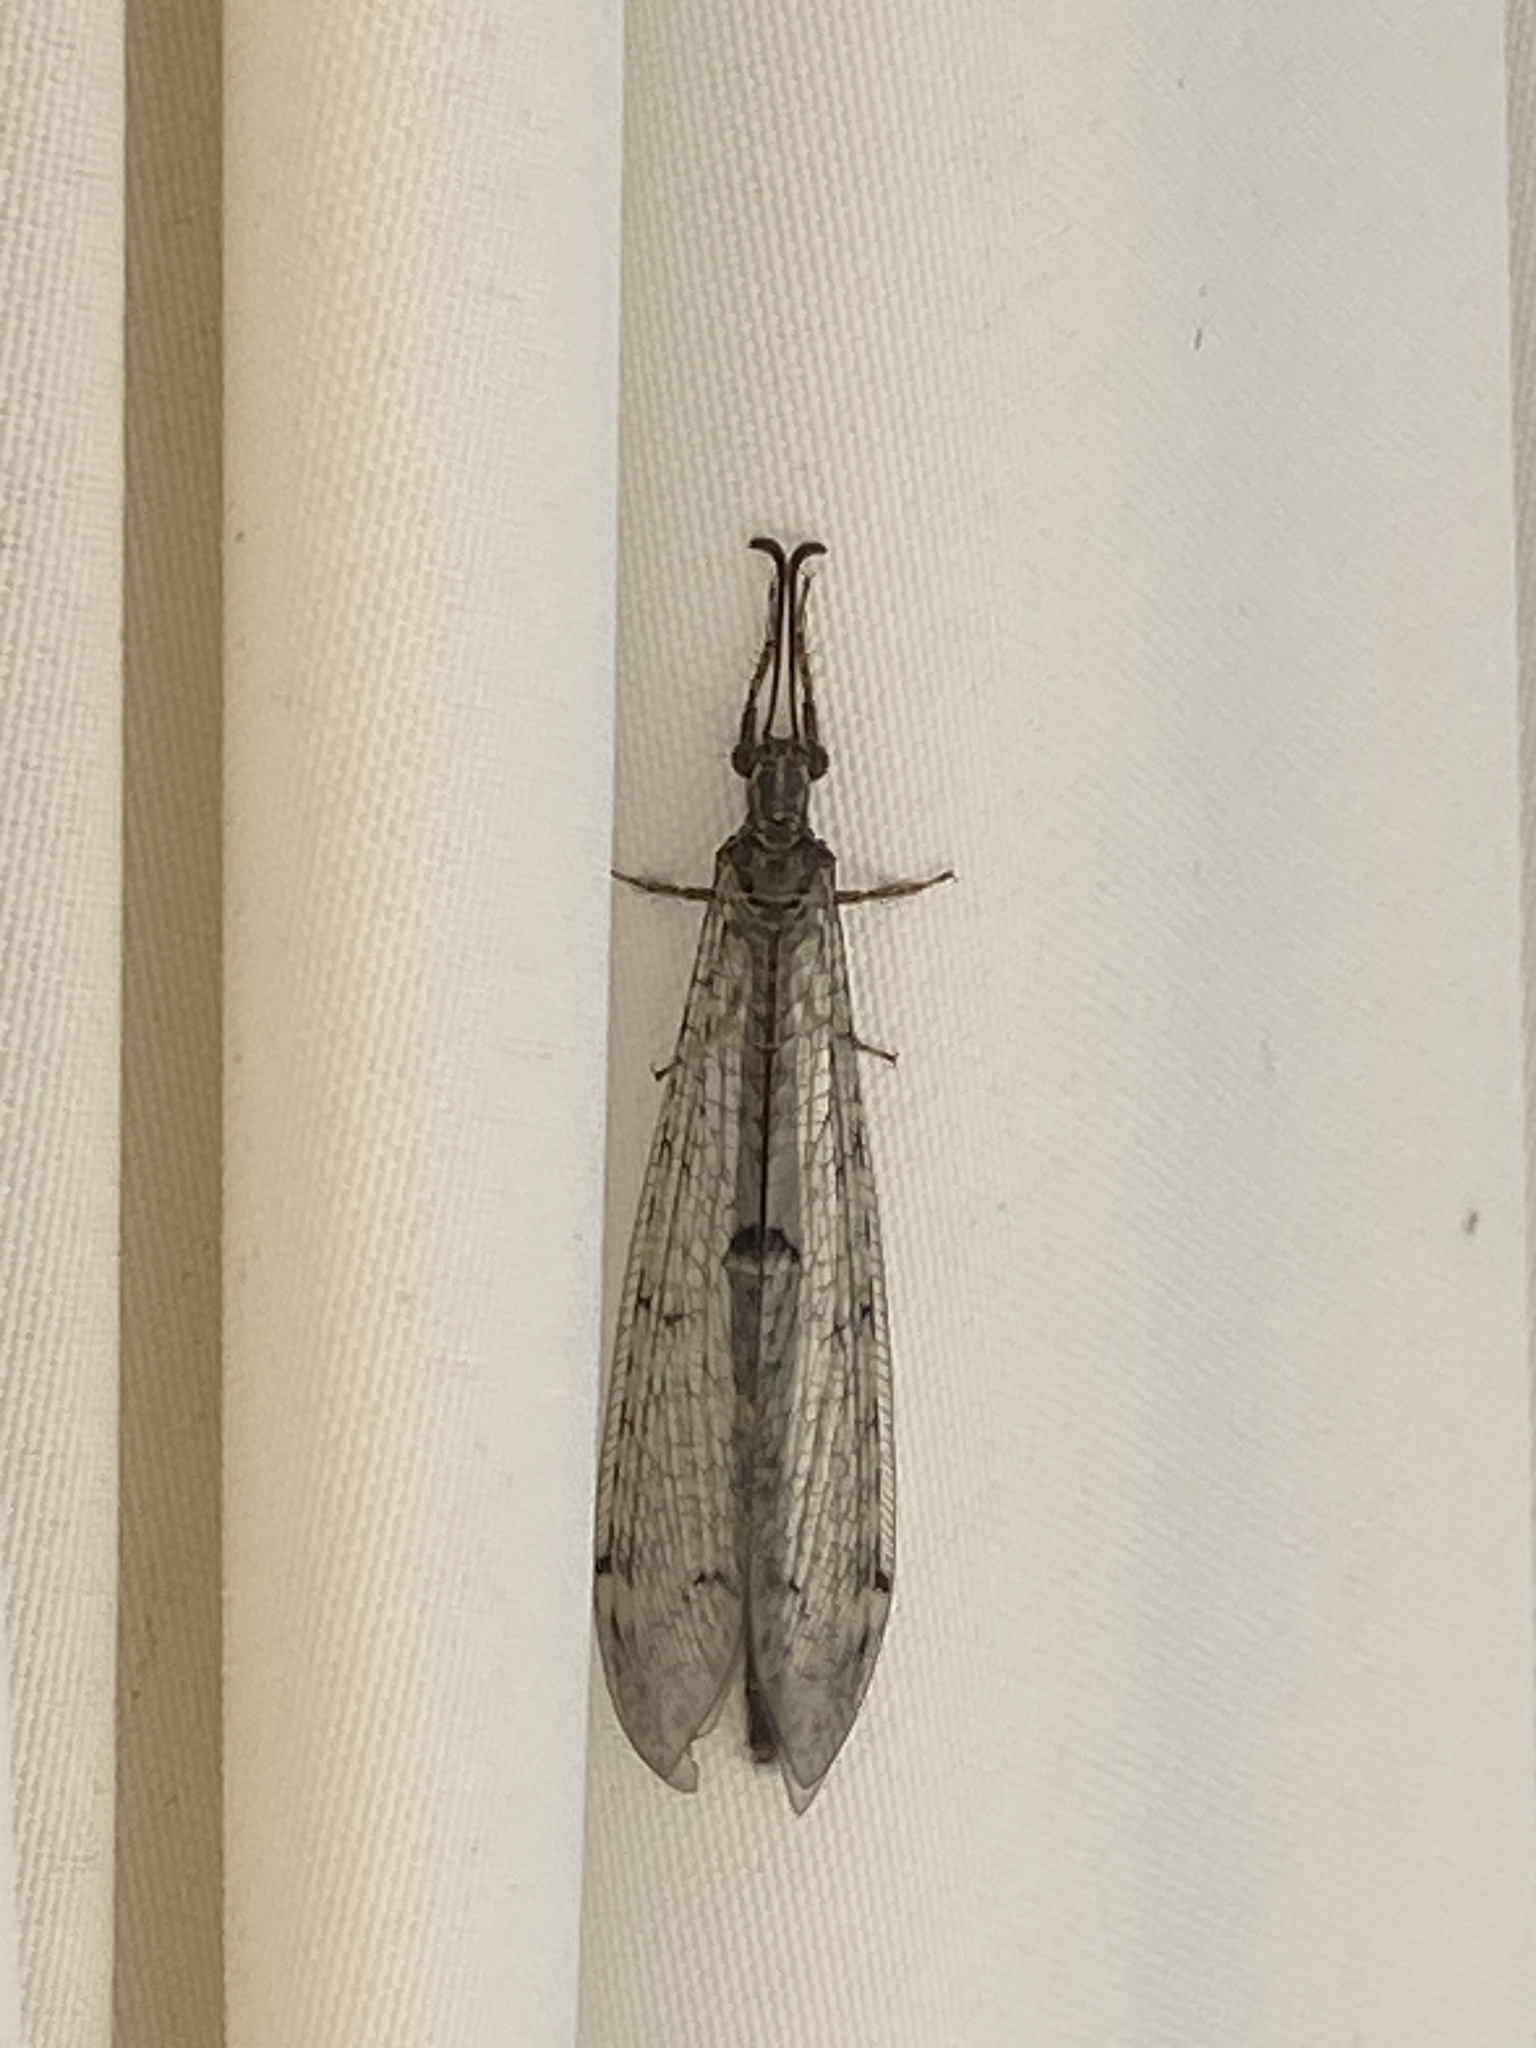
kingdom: Animalia
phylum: Arthropoda
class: Insecta
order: Neuroptera
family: Myrmeleontidae
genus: Distoleon
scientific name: Distoleon tetragrammicus
